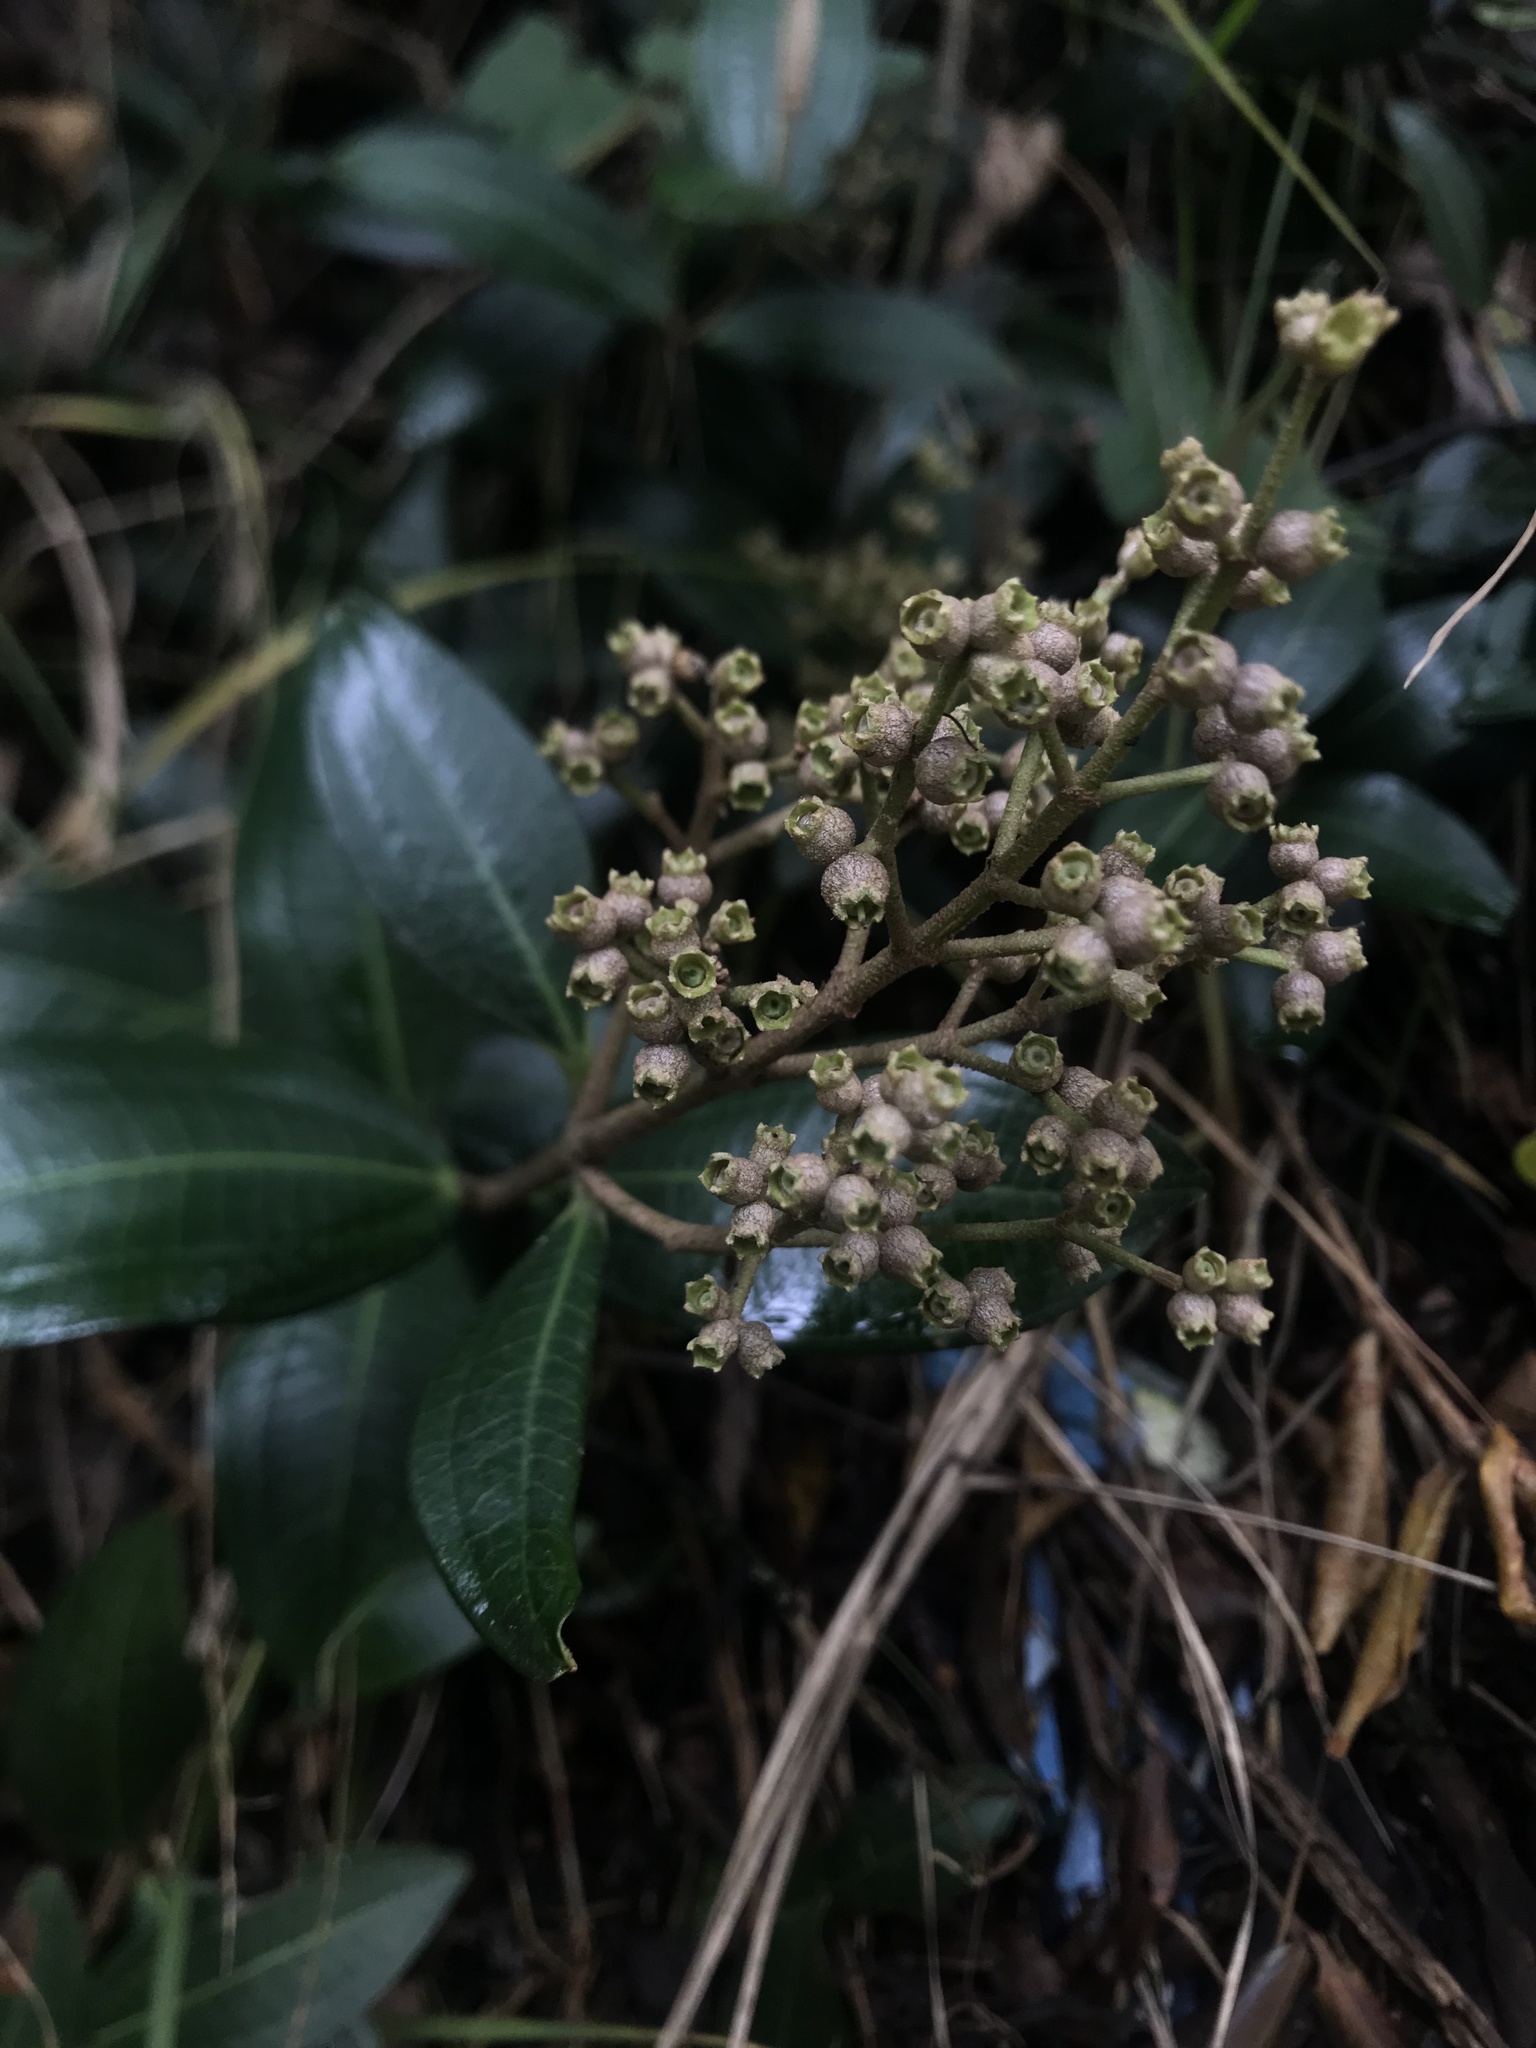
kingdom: Plantae
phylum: Tracheophyta
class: Magnoliopsida
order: Myrtales
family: Melastomataceae
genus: Miconia
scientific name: Miconia squamulosa
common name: Squamulose maya
